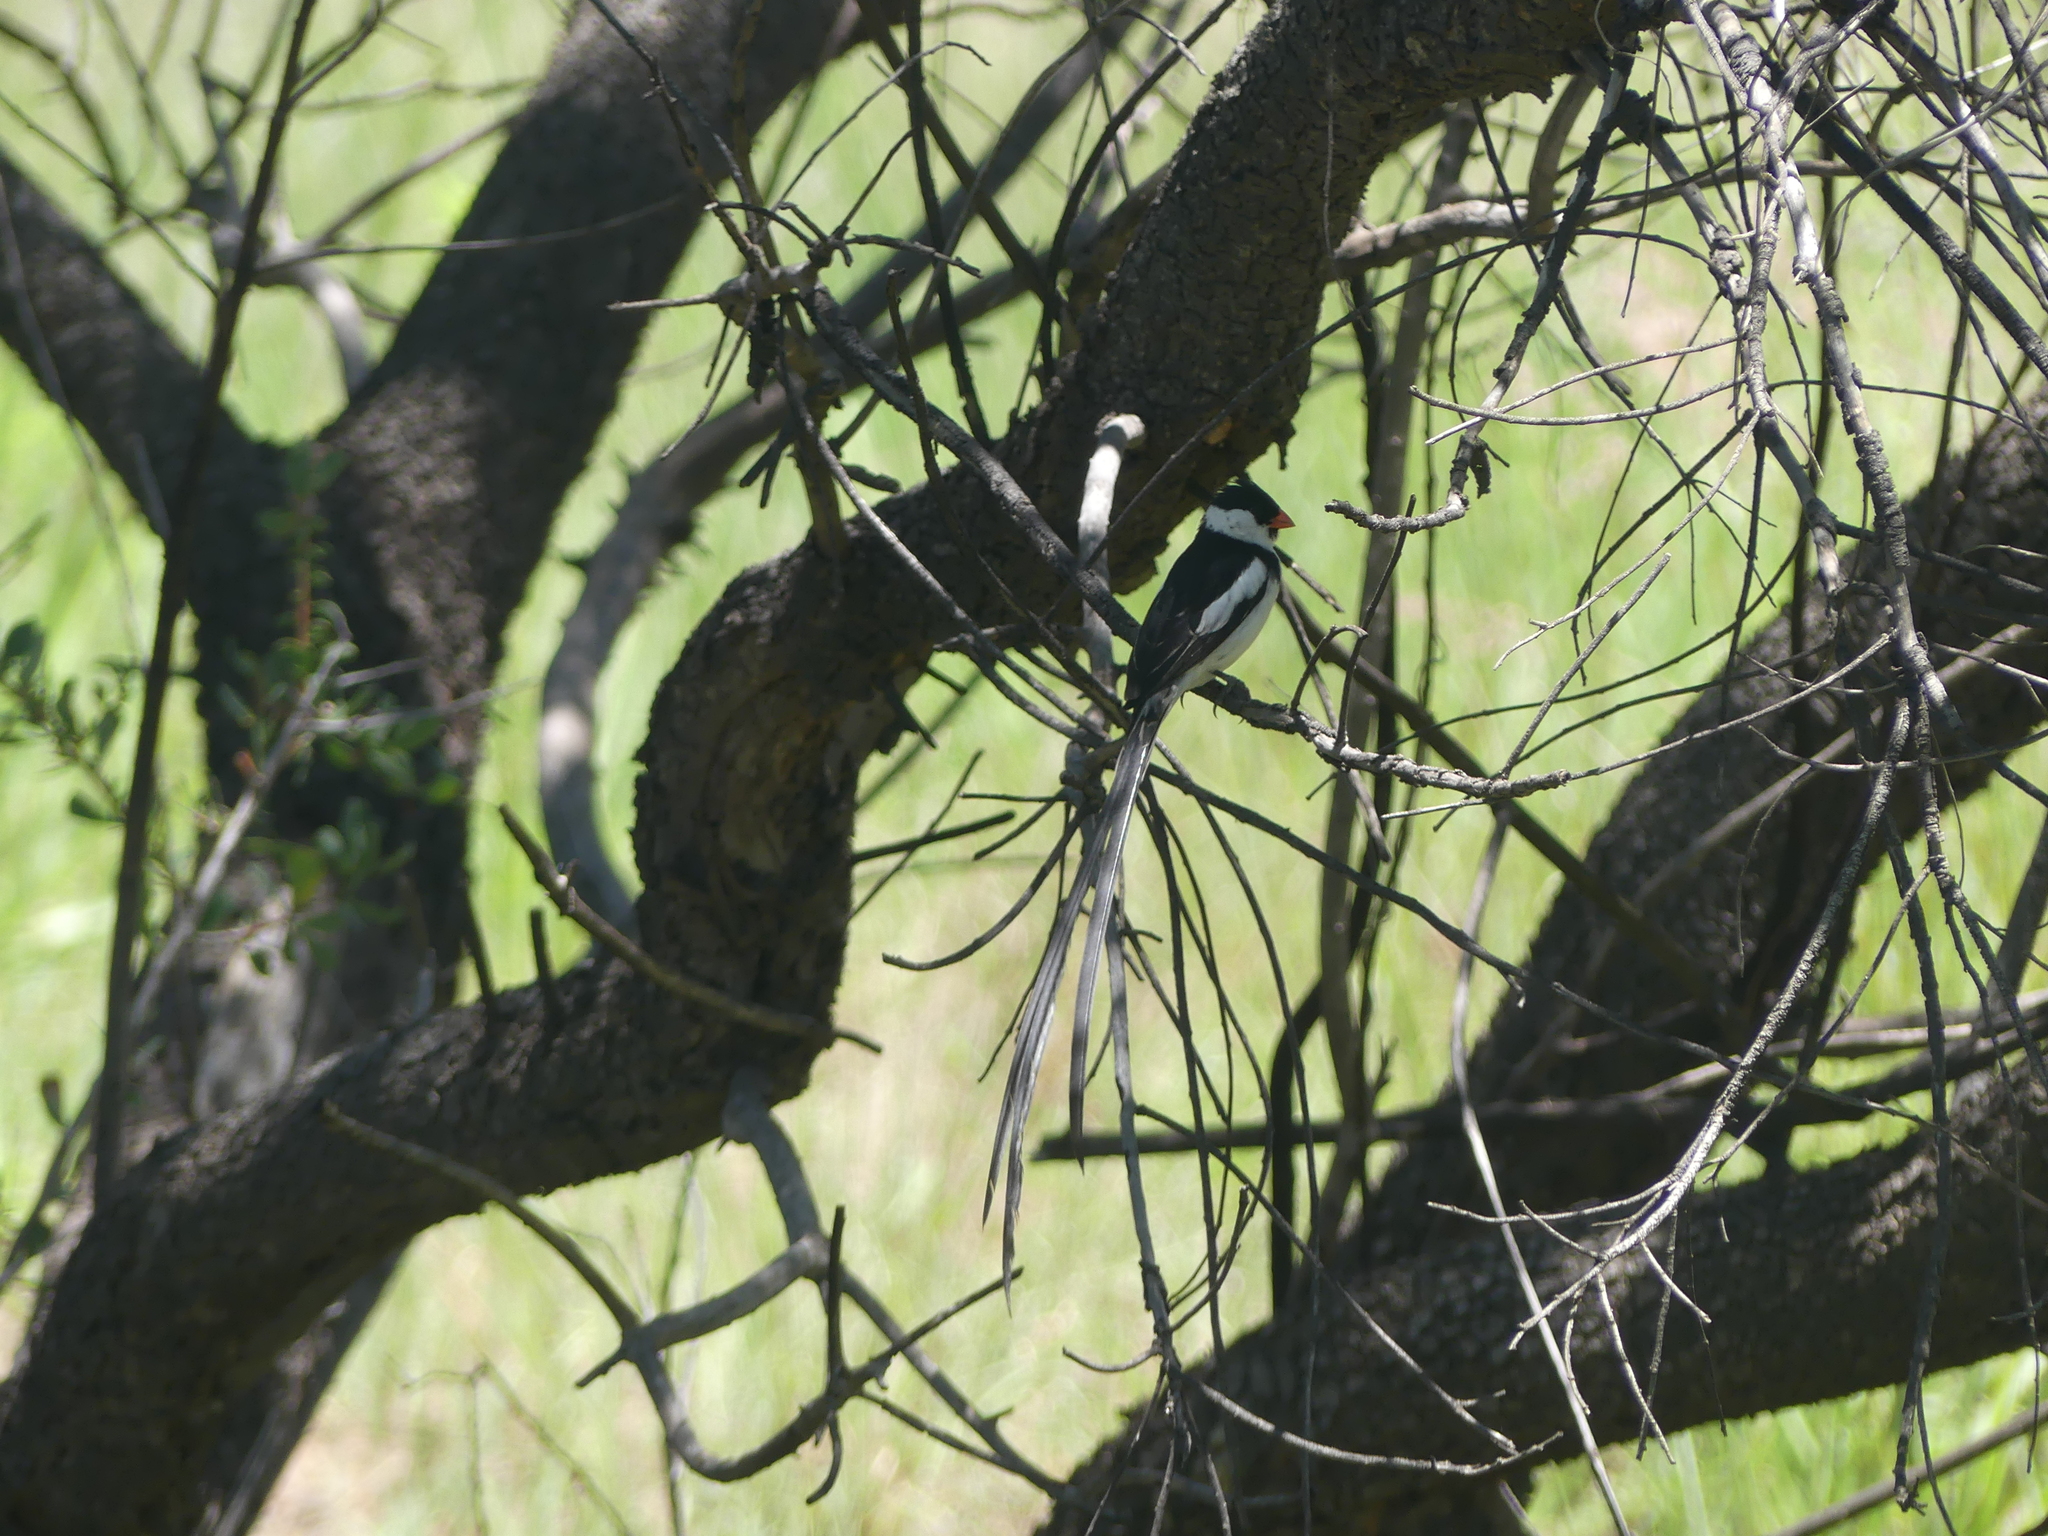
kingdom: Animalia
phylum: Chordata
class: Aves
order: Passeriformes
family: Viduidae
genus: Vidua
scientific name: Vidua macroura
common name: Pin-tailed whydah
